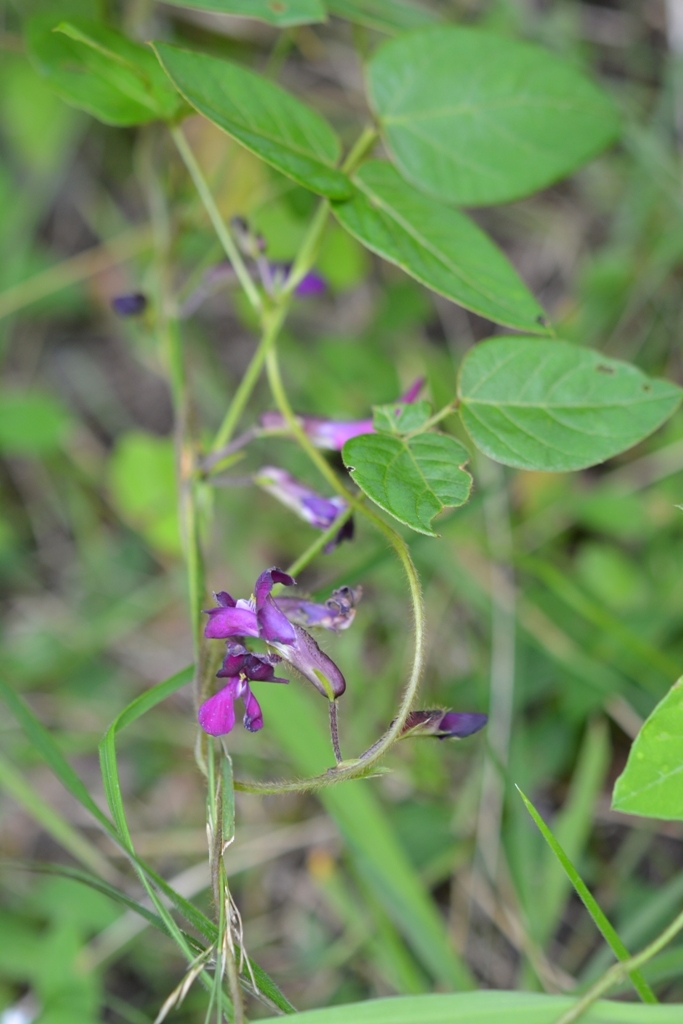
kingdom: Plantae
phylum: Tracheophyta
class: Magnoliopsida
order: Fabales
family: Fabaceae
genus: Cologania
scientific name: Cologania broussonetii
